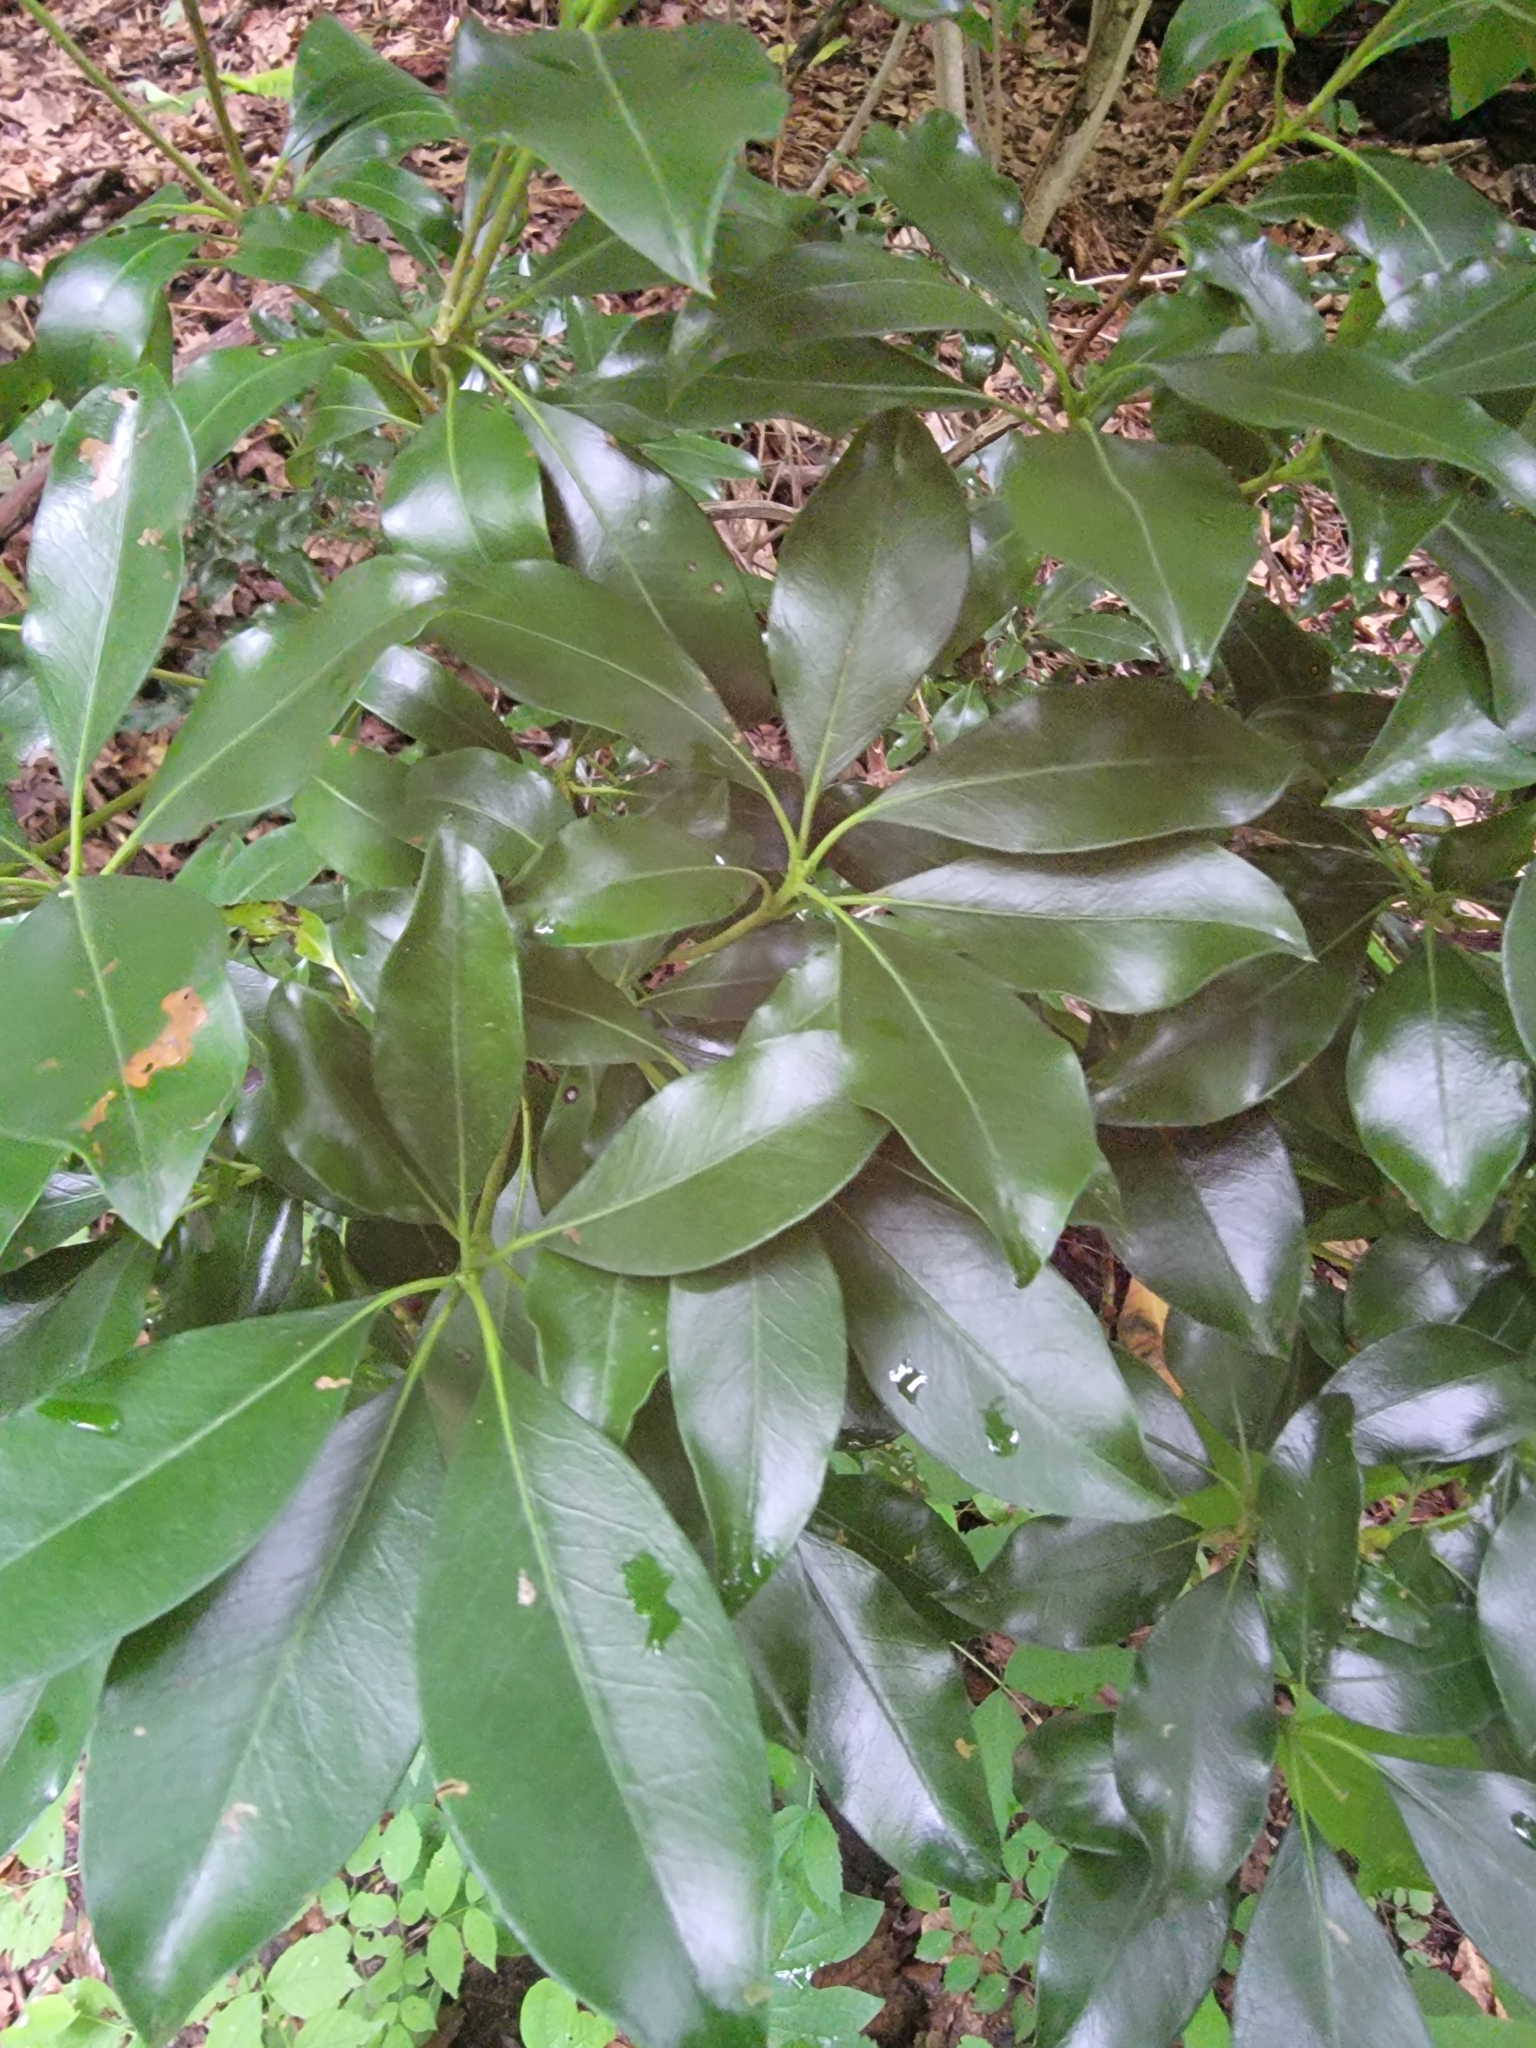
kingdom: Plantae
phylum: Tracheophyta
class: Magnoliopsida
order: Ericales
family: Ericaceae
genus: Kalmia
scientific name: Kalmia latifolia
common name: Mountain-laurel
